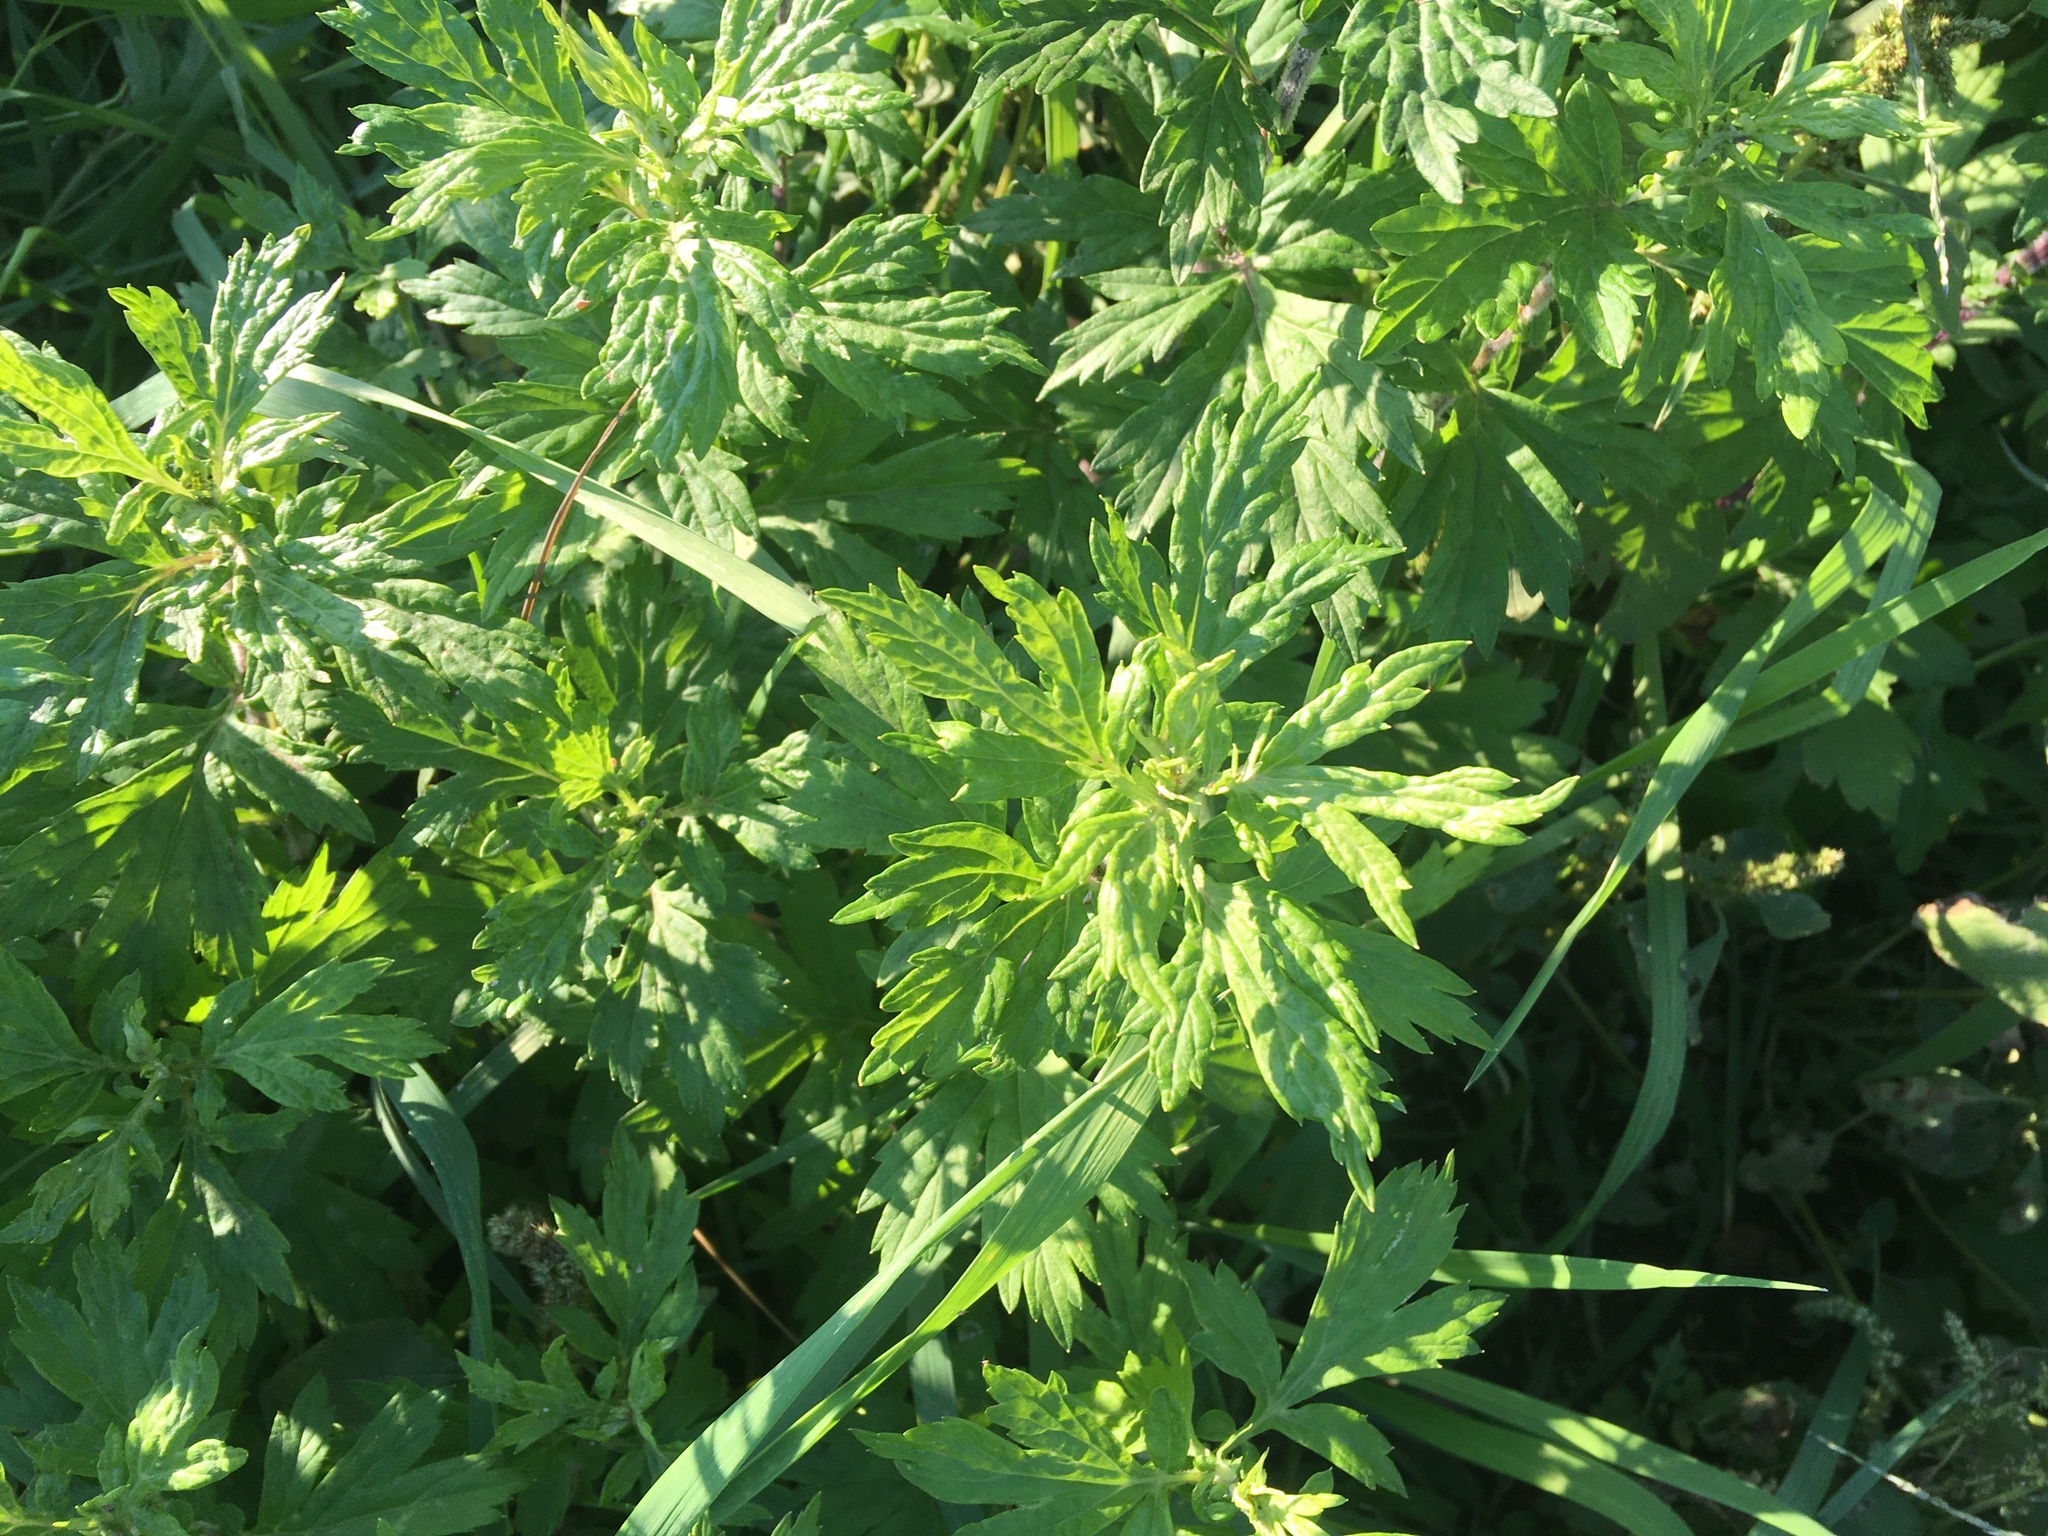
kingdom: Plantae
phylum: Tracheophyta
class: Magnoliopsida
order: Asterales
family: Asteraceae
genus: Artemisia
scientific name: Artemisia vulgaris
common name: Mugwort
